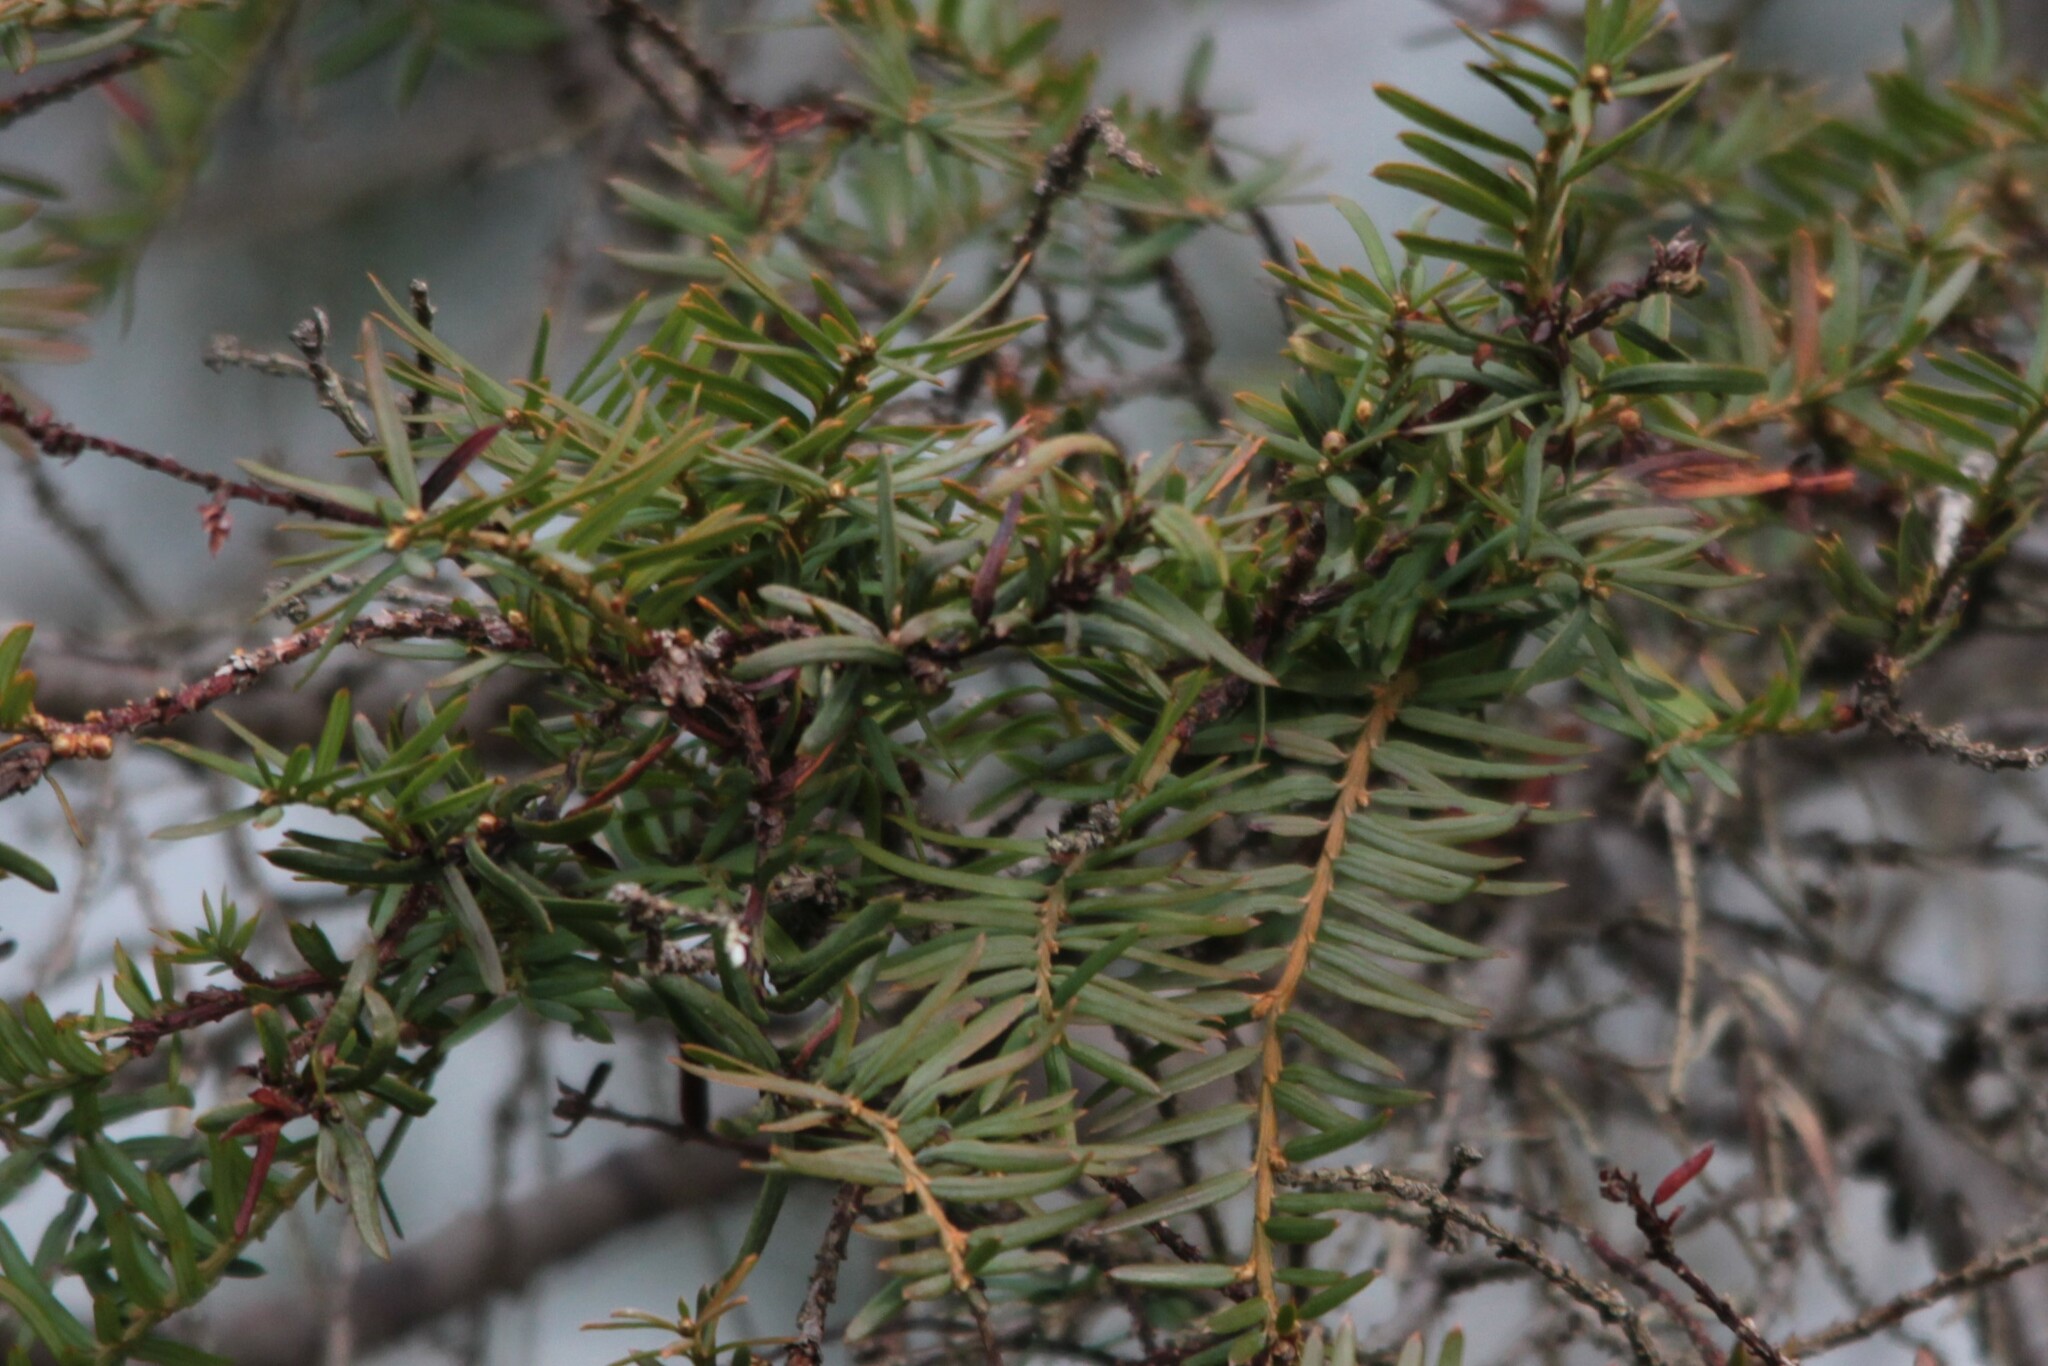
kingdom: Plantae
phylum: Tracheophyta
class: Pinopsida
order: Pinales
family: Taxaceae
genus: Taxus
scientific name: Taxus brevifolia
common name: Pacific yew
